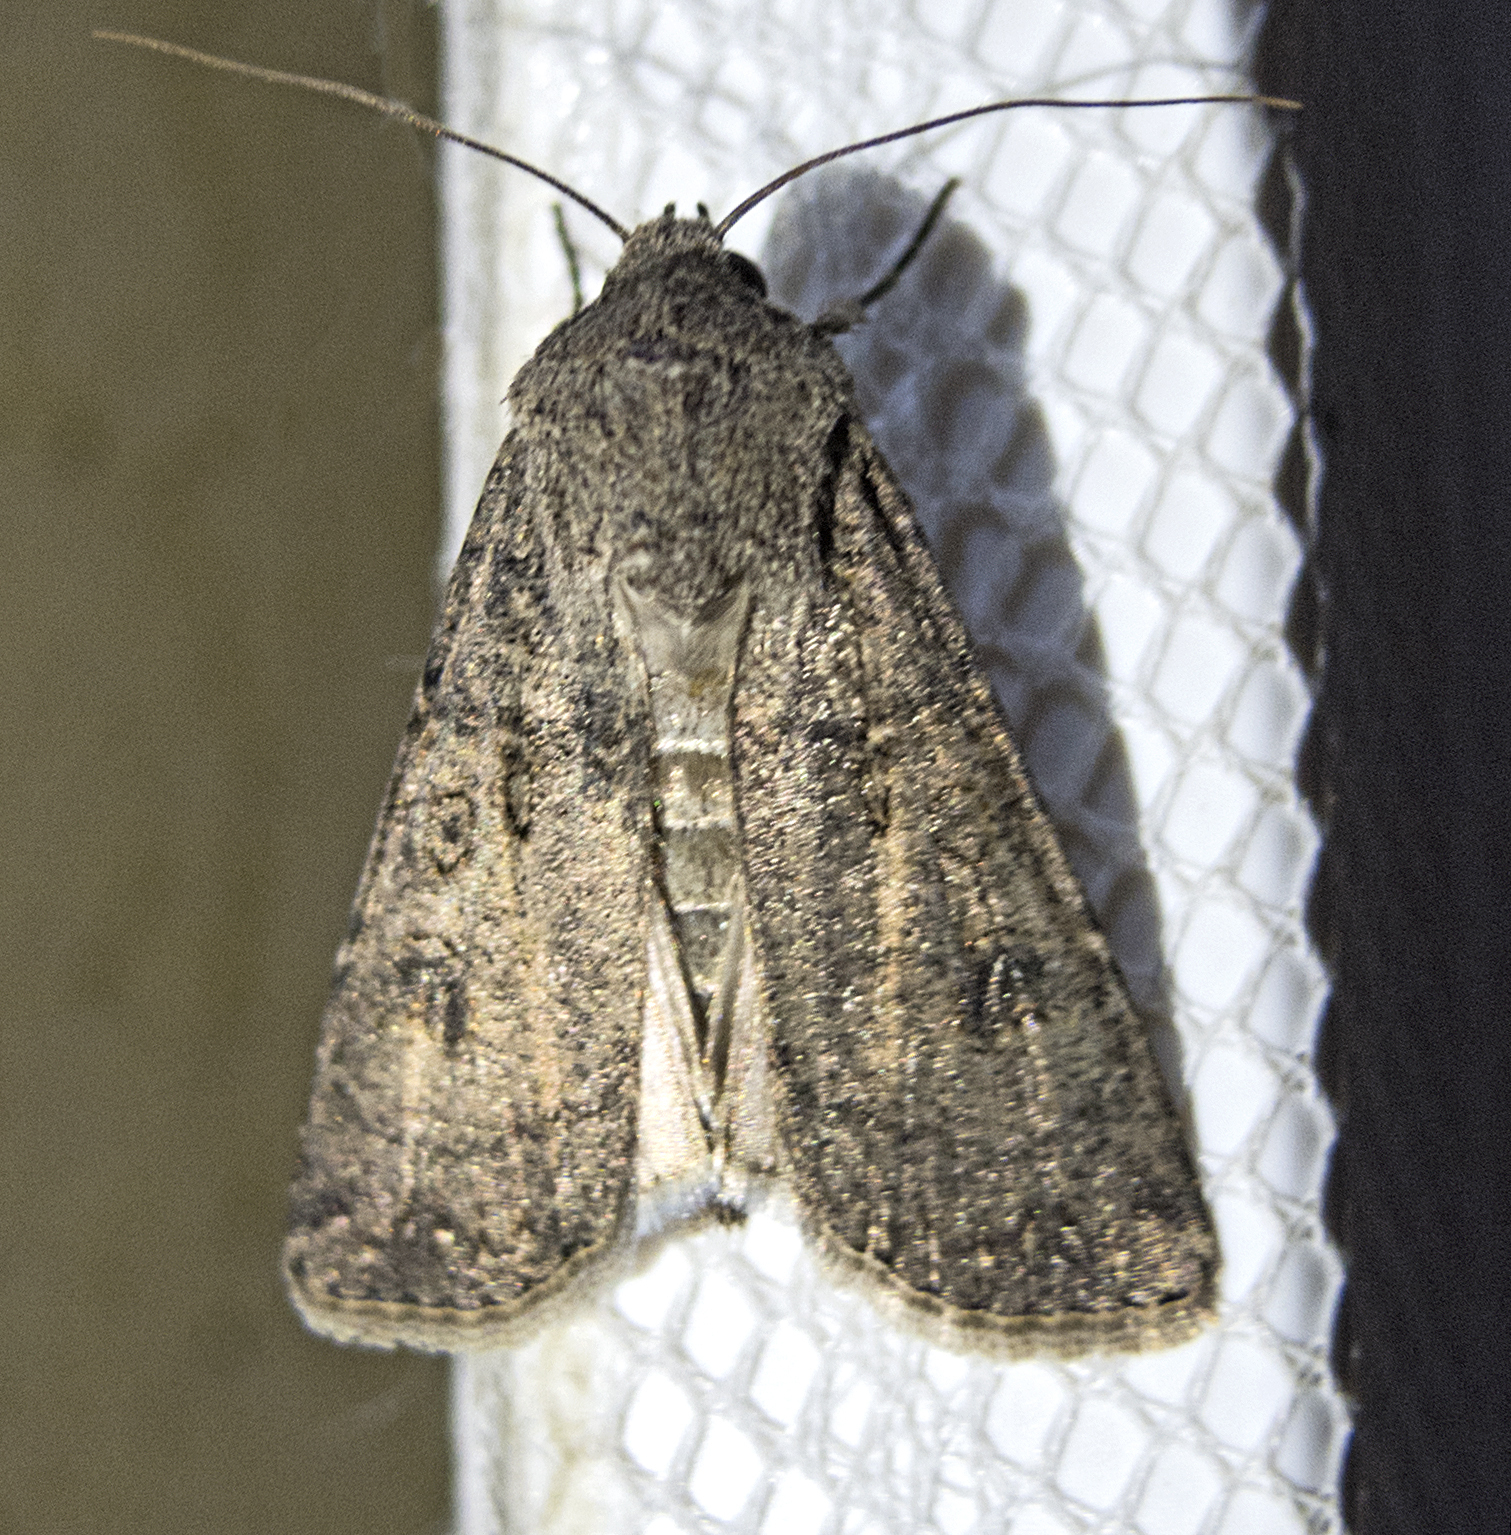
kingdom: Animalia
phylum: Arthropoda
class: Insecta
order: Lepidoptera
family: Noctuidae
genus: Agrotis
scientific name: Agrotis segetum
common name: Turnip moth
